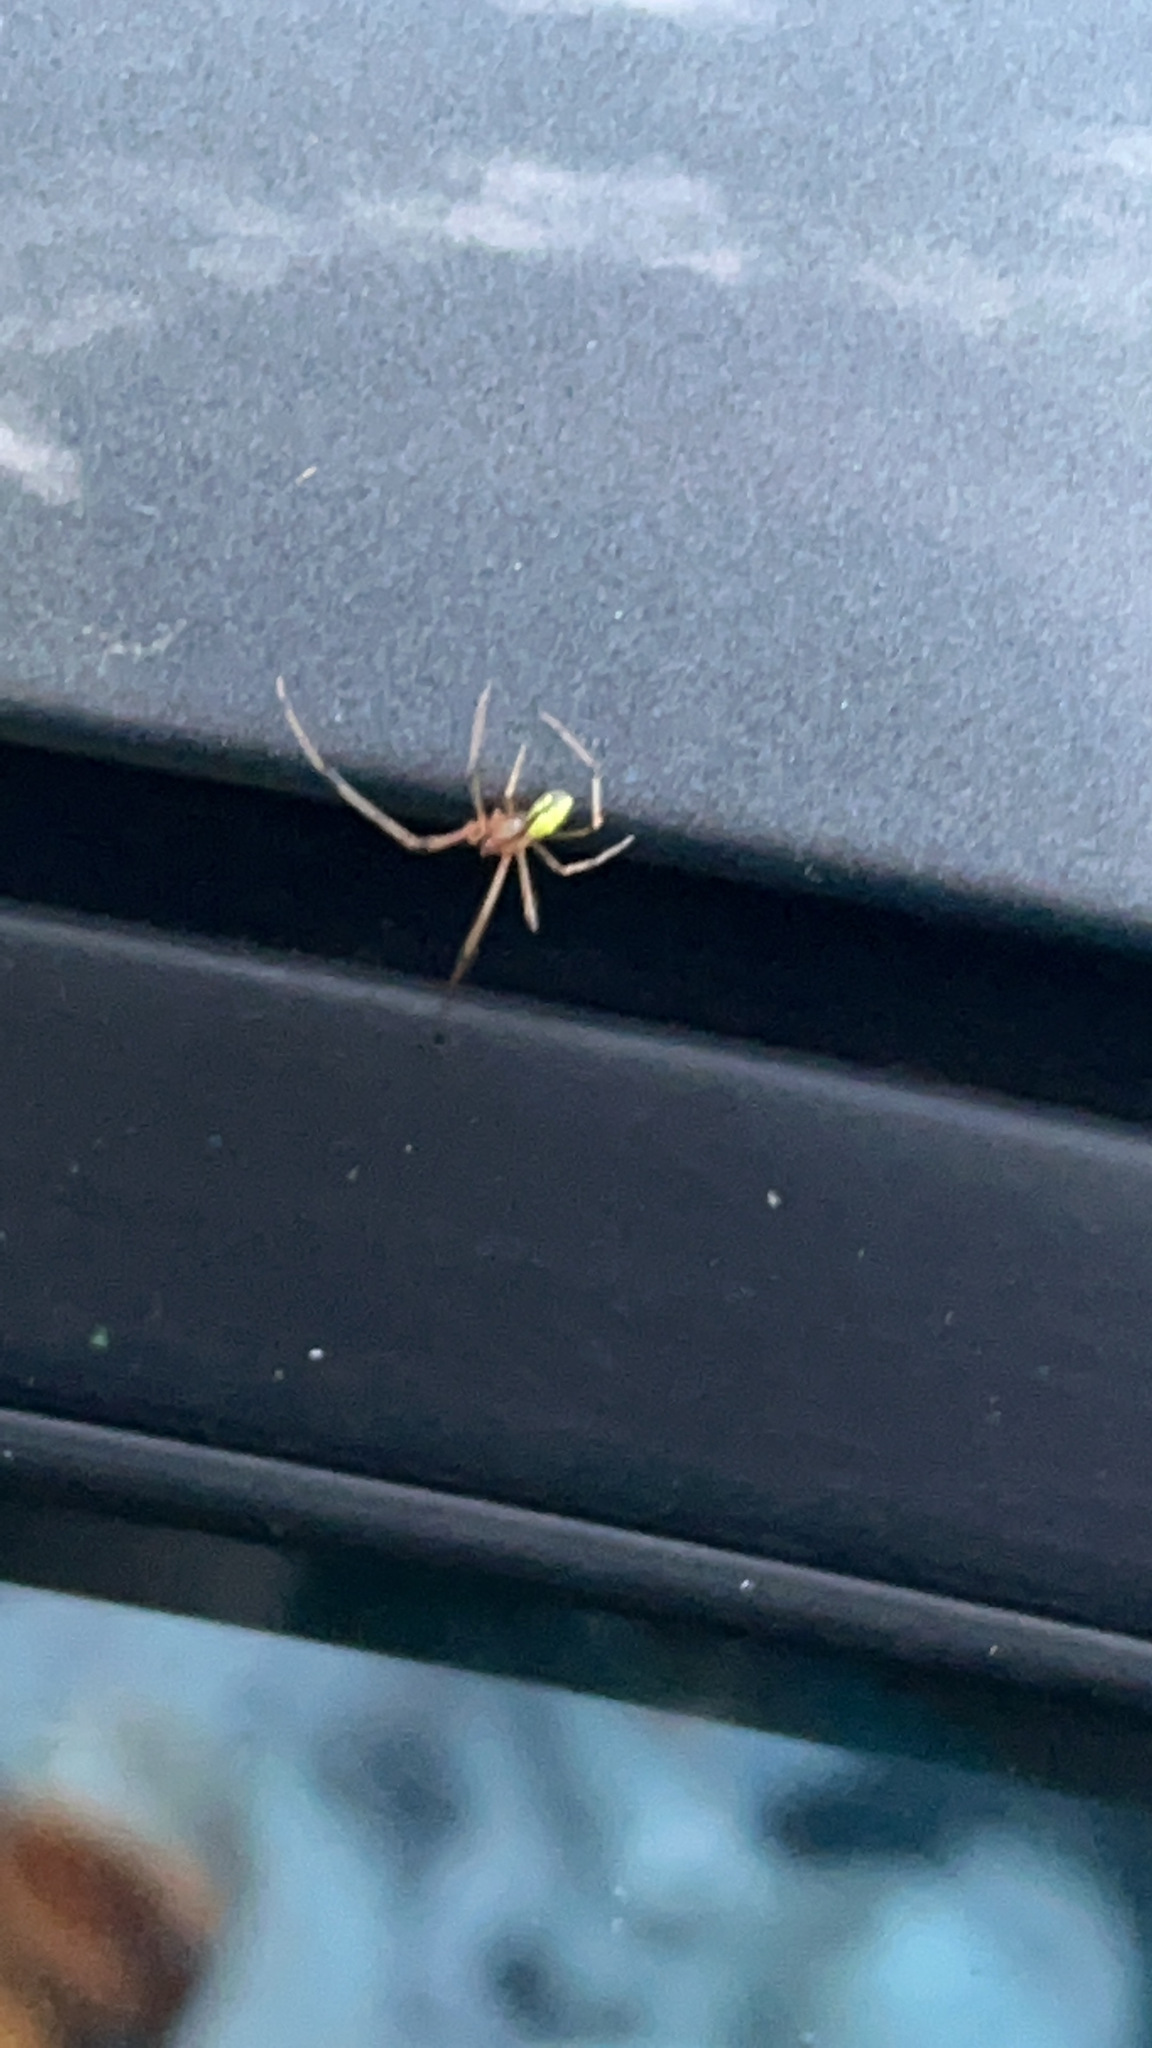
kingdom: Animalia
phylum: Arthropoda
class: Arachnida
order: Araneae
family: Theridiidae
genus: Theridion
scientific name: Theridion
